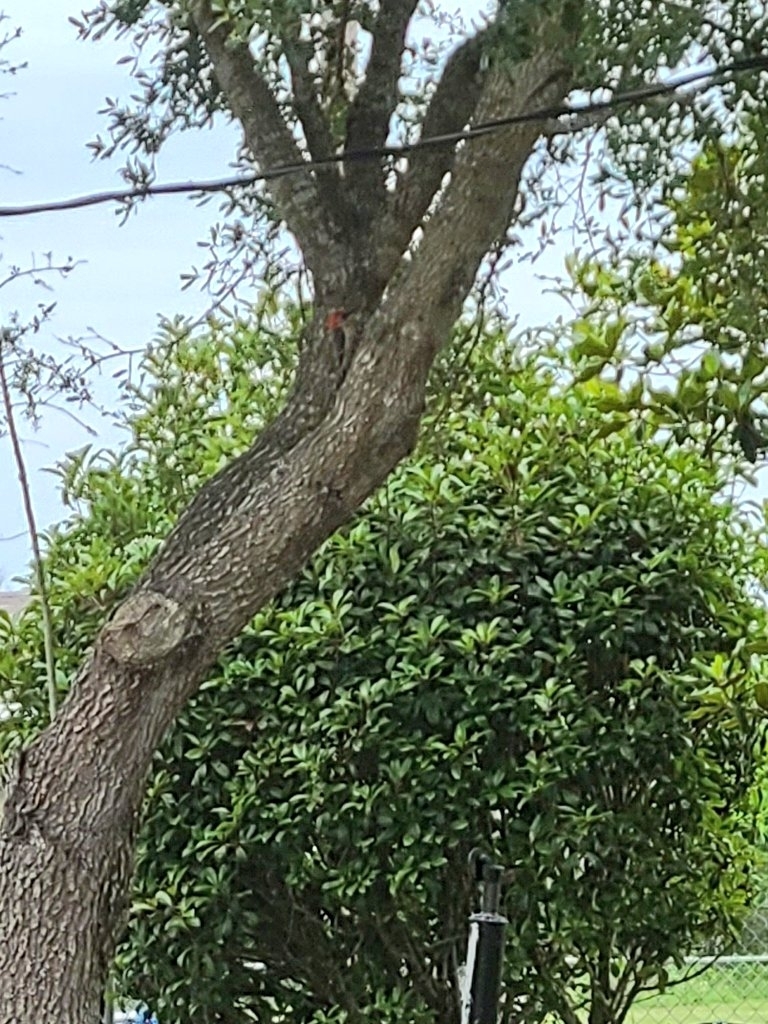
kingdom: Animalia
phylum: Chordata
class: Aves
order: Piciformes
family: Picidae
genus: Melanerpes
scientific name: Melanerpes carolinus
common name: Red-bellied woodpecker
